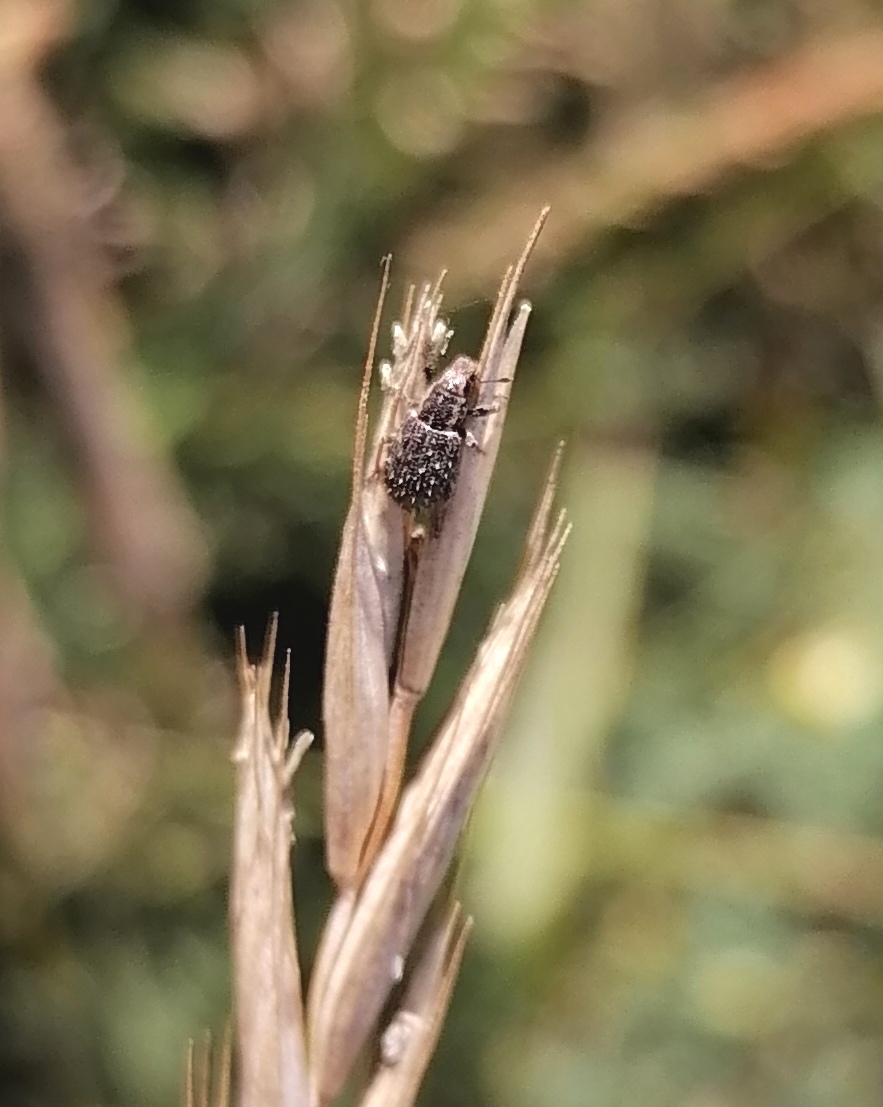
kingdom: Animalia
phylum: Arthropoda
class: Insecta
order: Coleoptera
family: Curculionidae
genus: Sitona
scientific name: Sitona hispidulus
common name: Clover weevil
